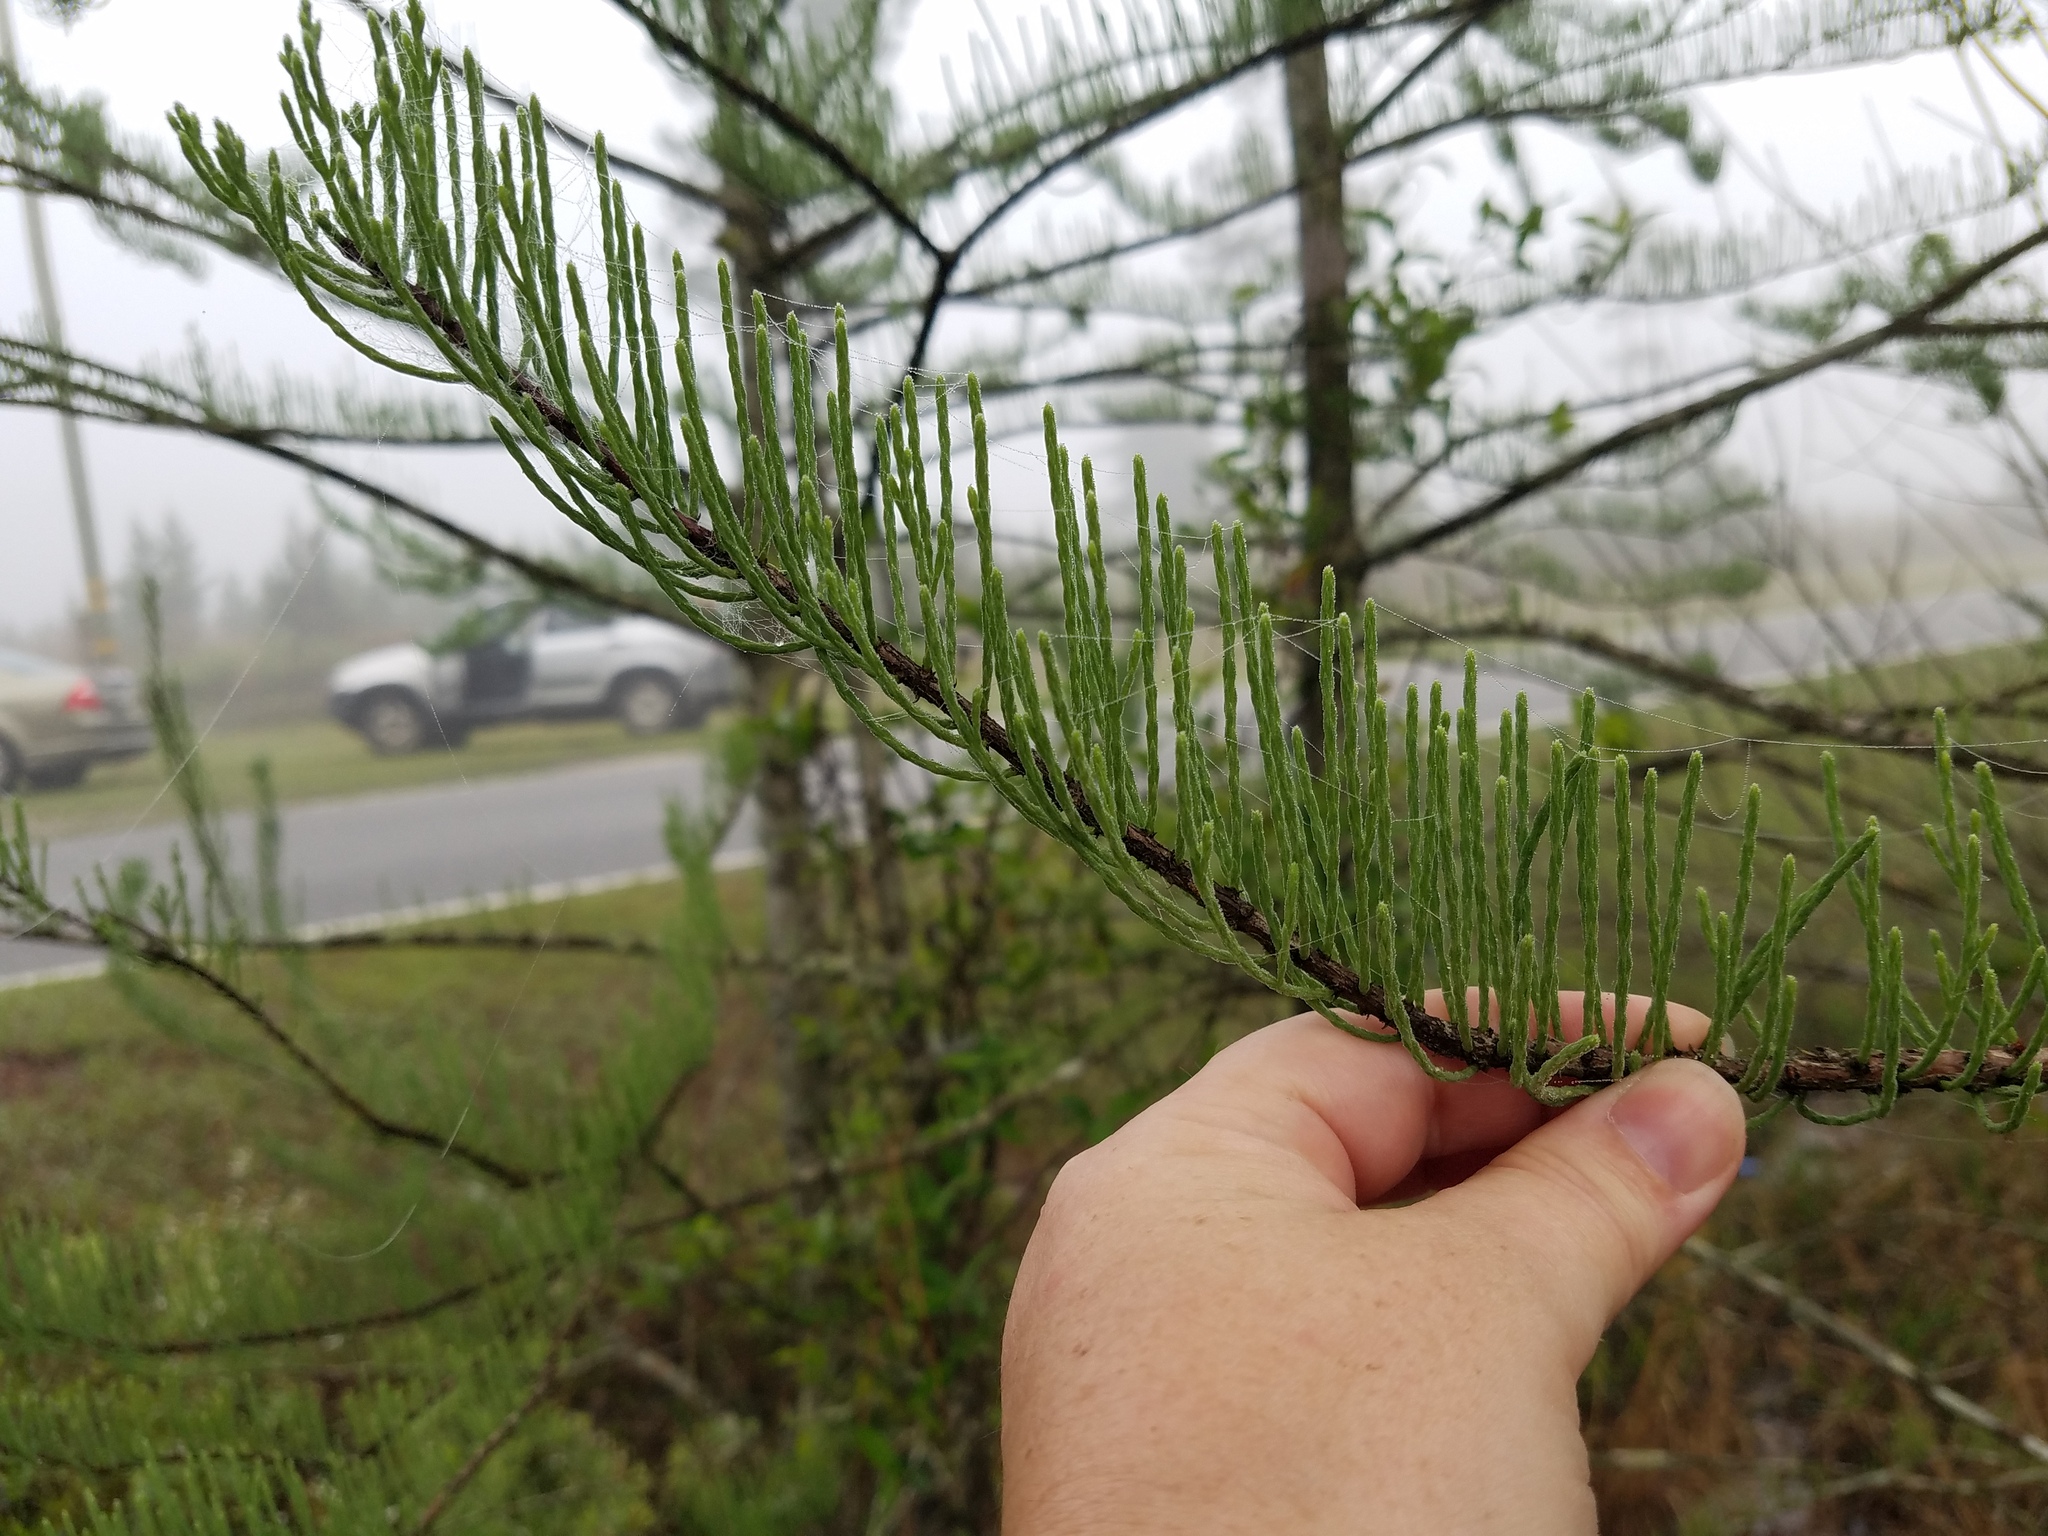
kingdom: Plantae
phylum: Tracheophyta
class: Pinopsida
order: Pinales
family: Cupressaceae
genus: Taxodium
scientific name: Taxodium distichum
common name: Bald cypress
